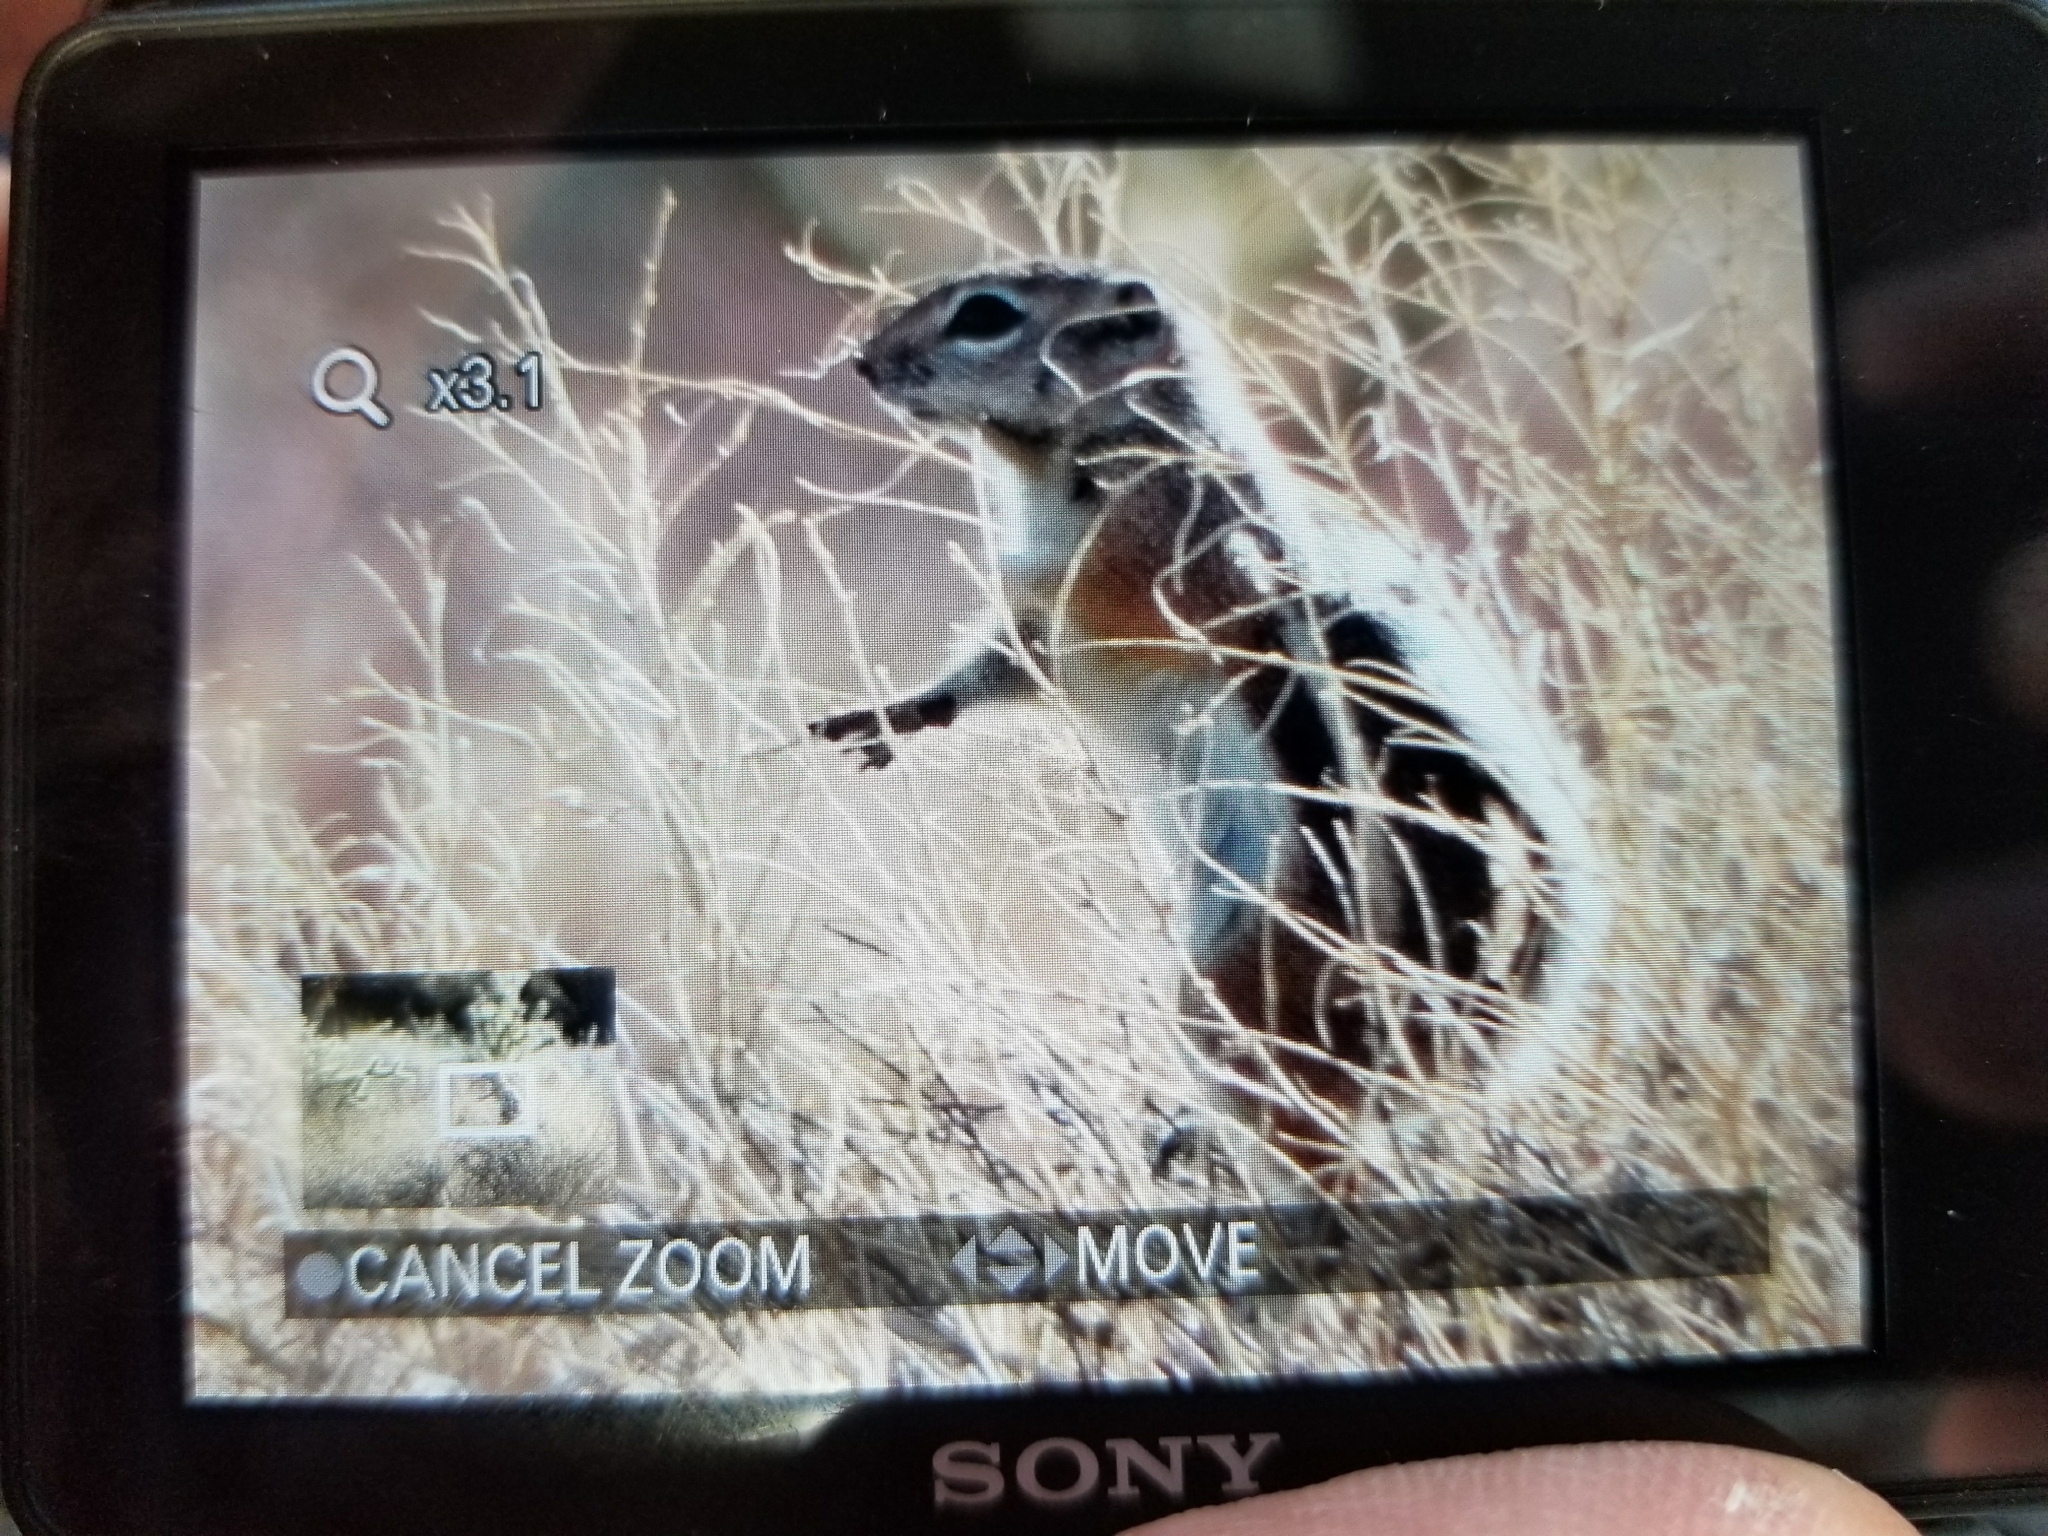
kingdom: Animalia
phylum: Chordata
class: Mammalia
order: Rodentia
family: Sciuridae
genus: Ammospermophilus
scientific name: Ammospermophilus leucurus
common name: White-tailed antelope squirrel
